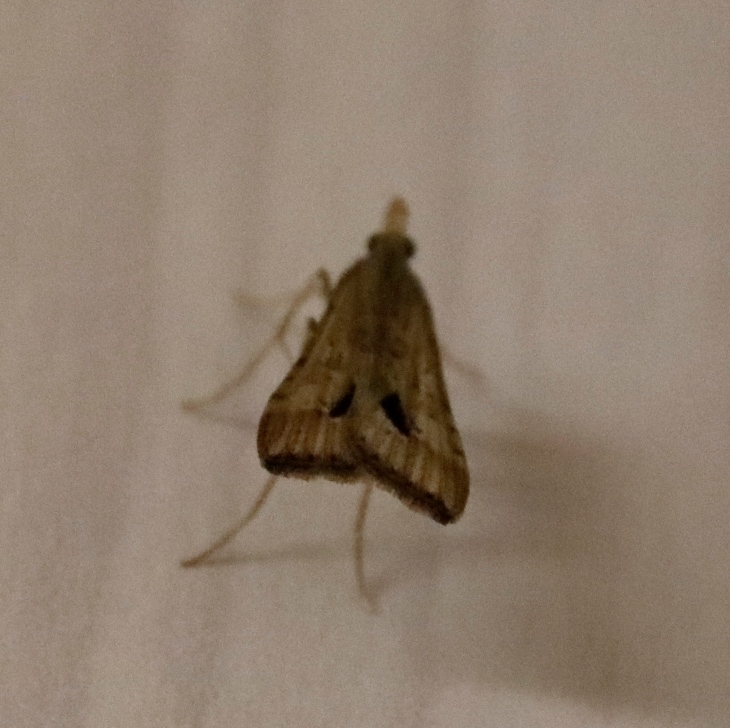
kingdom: Animalia
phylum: Arthropoda
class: Insecta
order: Lepidoptera
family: Crambidae
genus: Diasemia
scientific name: Diasemia monostigma
